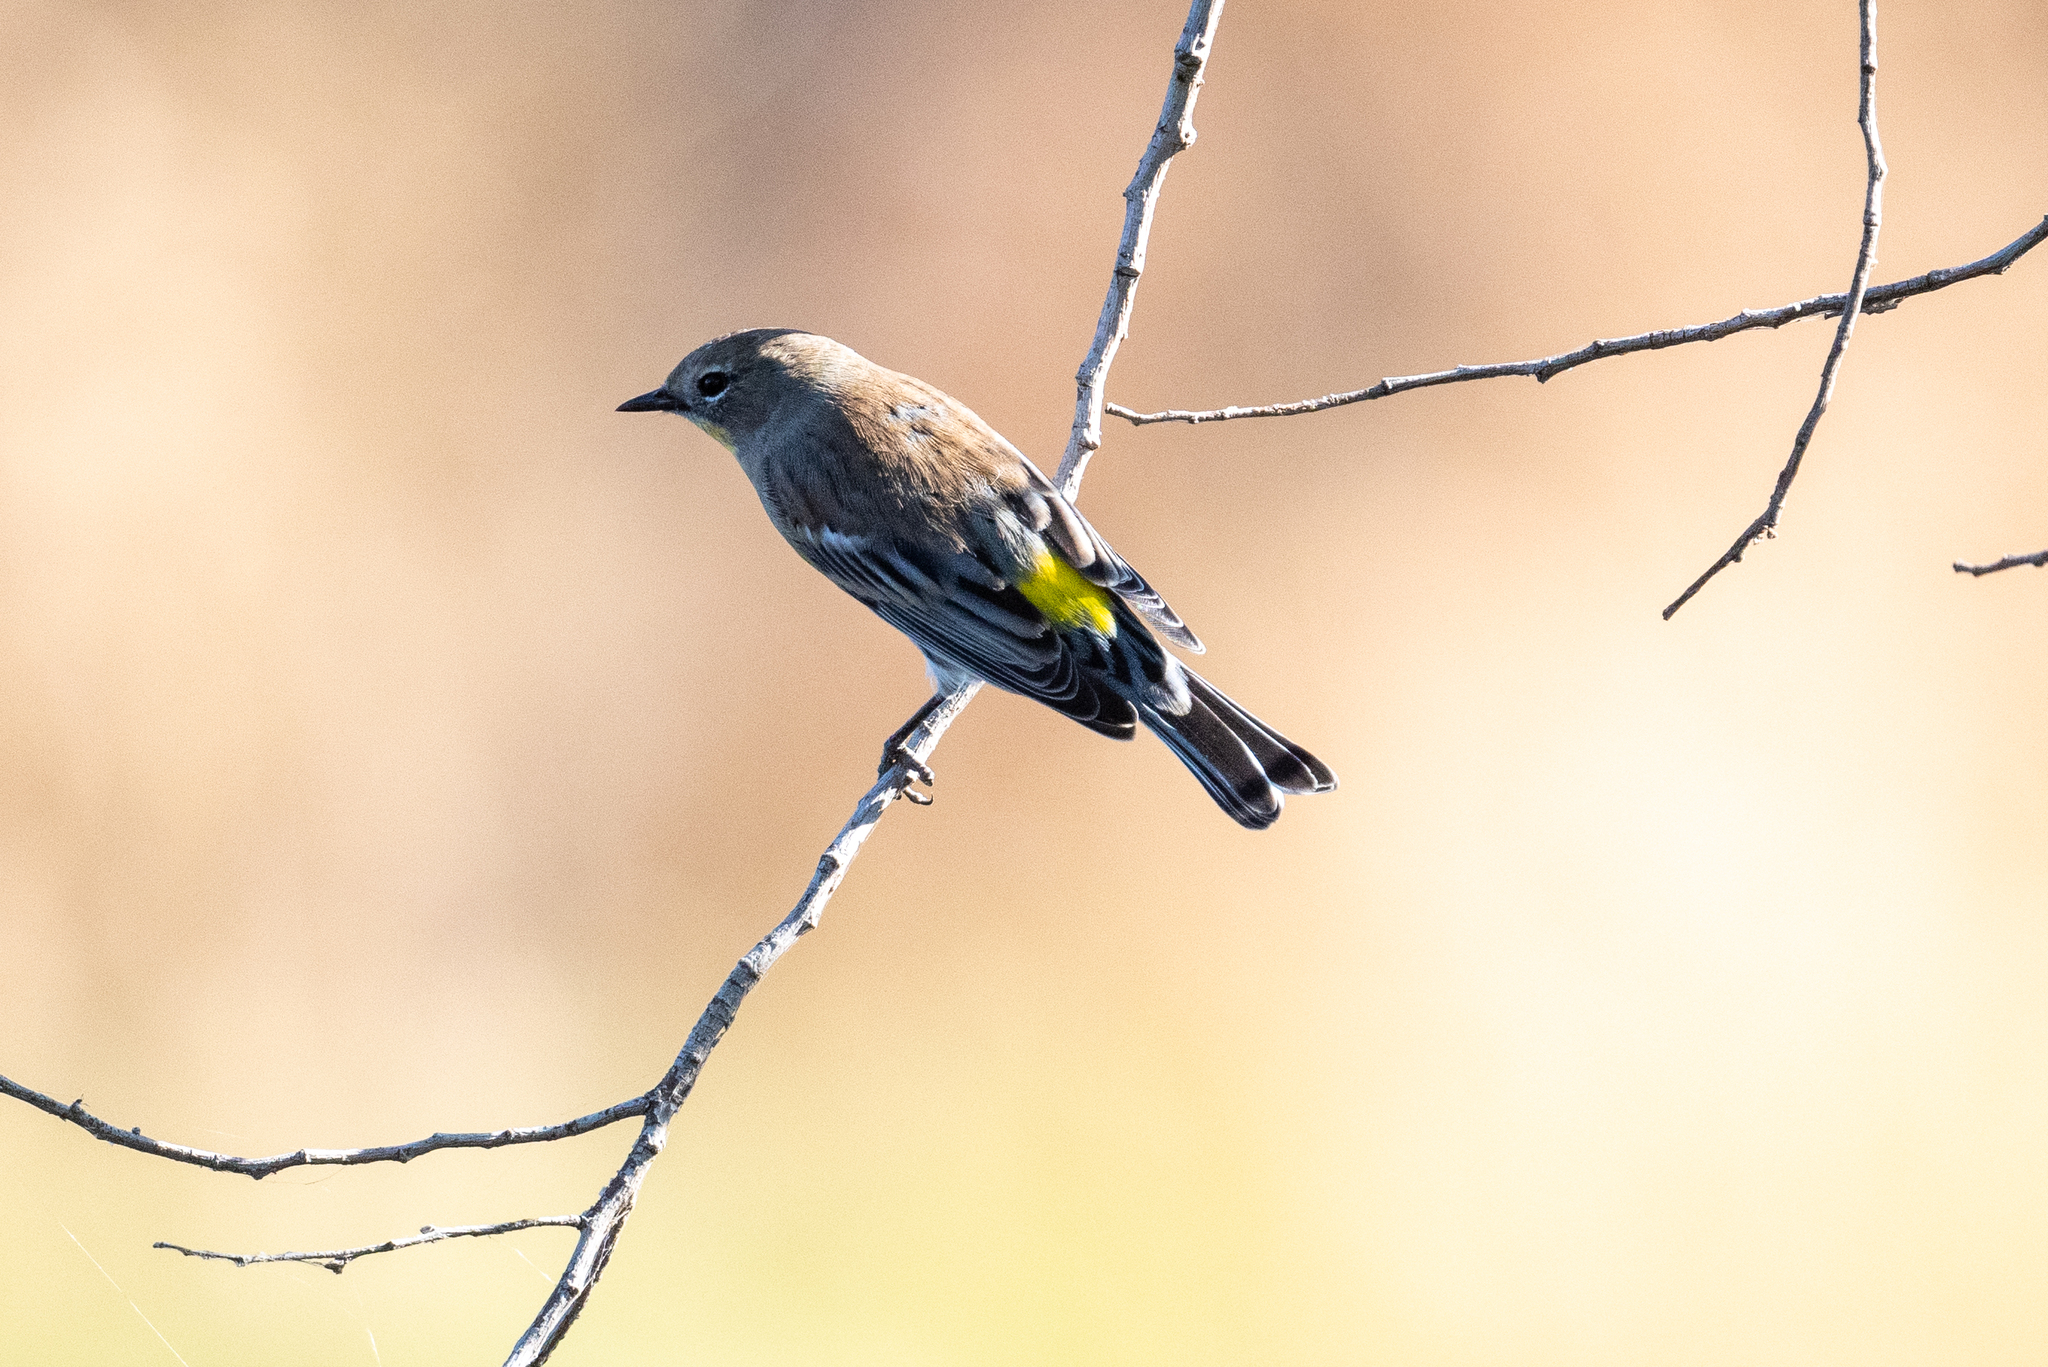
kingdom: Animalia
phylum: Chordata
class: Aves
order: Passeriformes
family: Parulidae
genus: Setophaga
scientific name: Setophaga coronata
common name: Myrtle warbler
